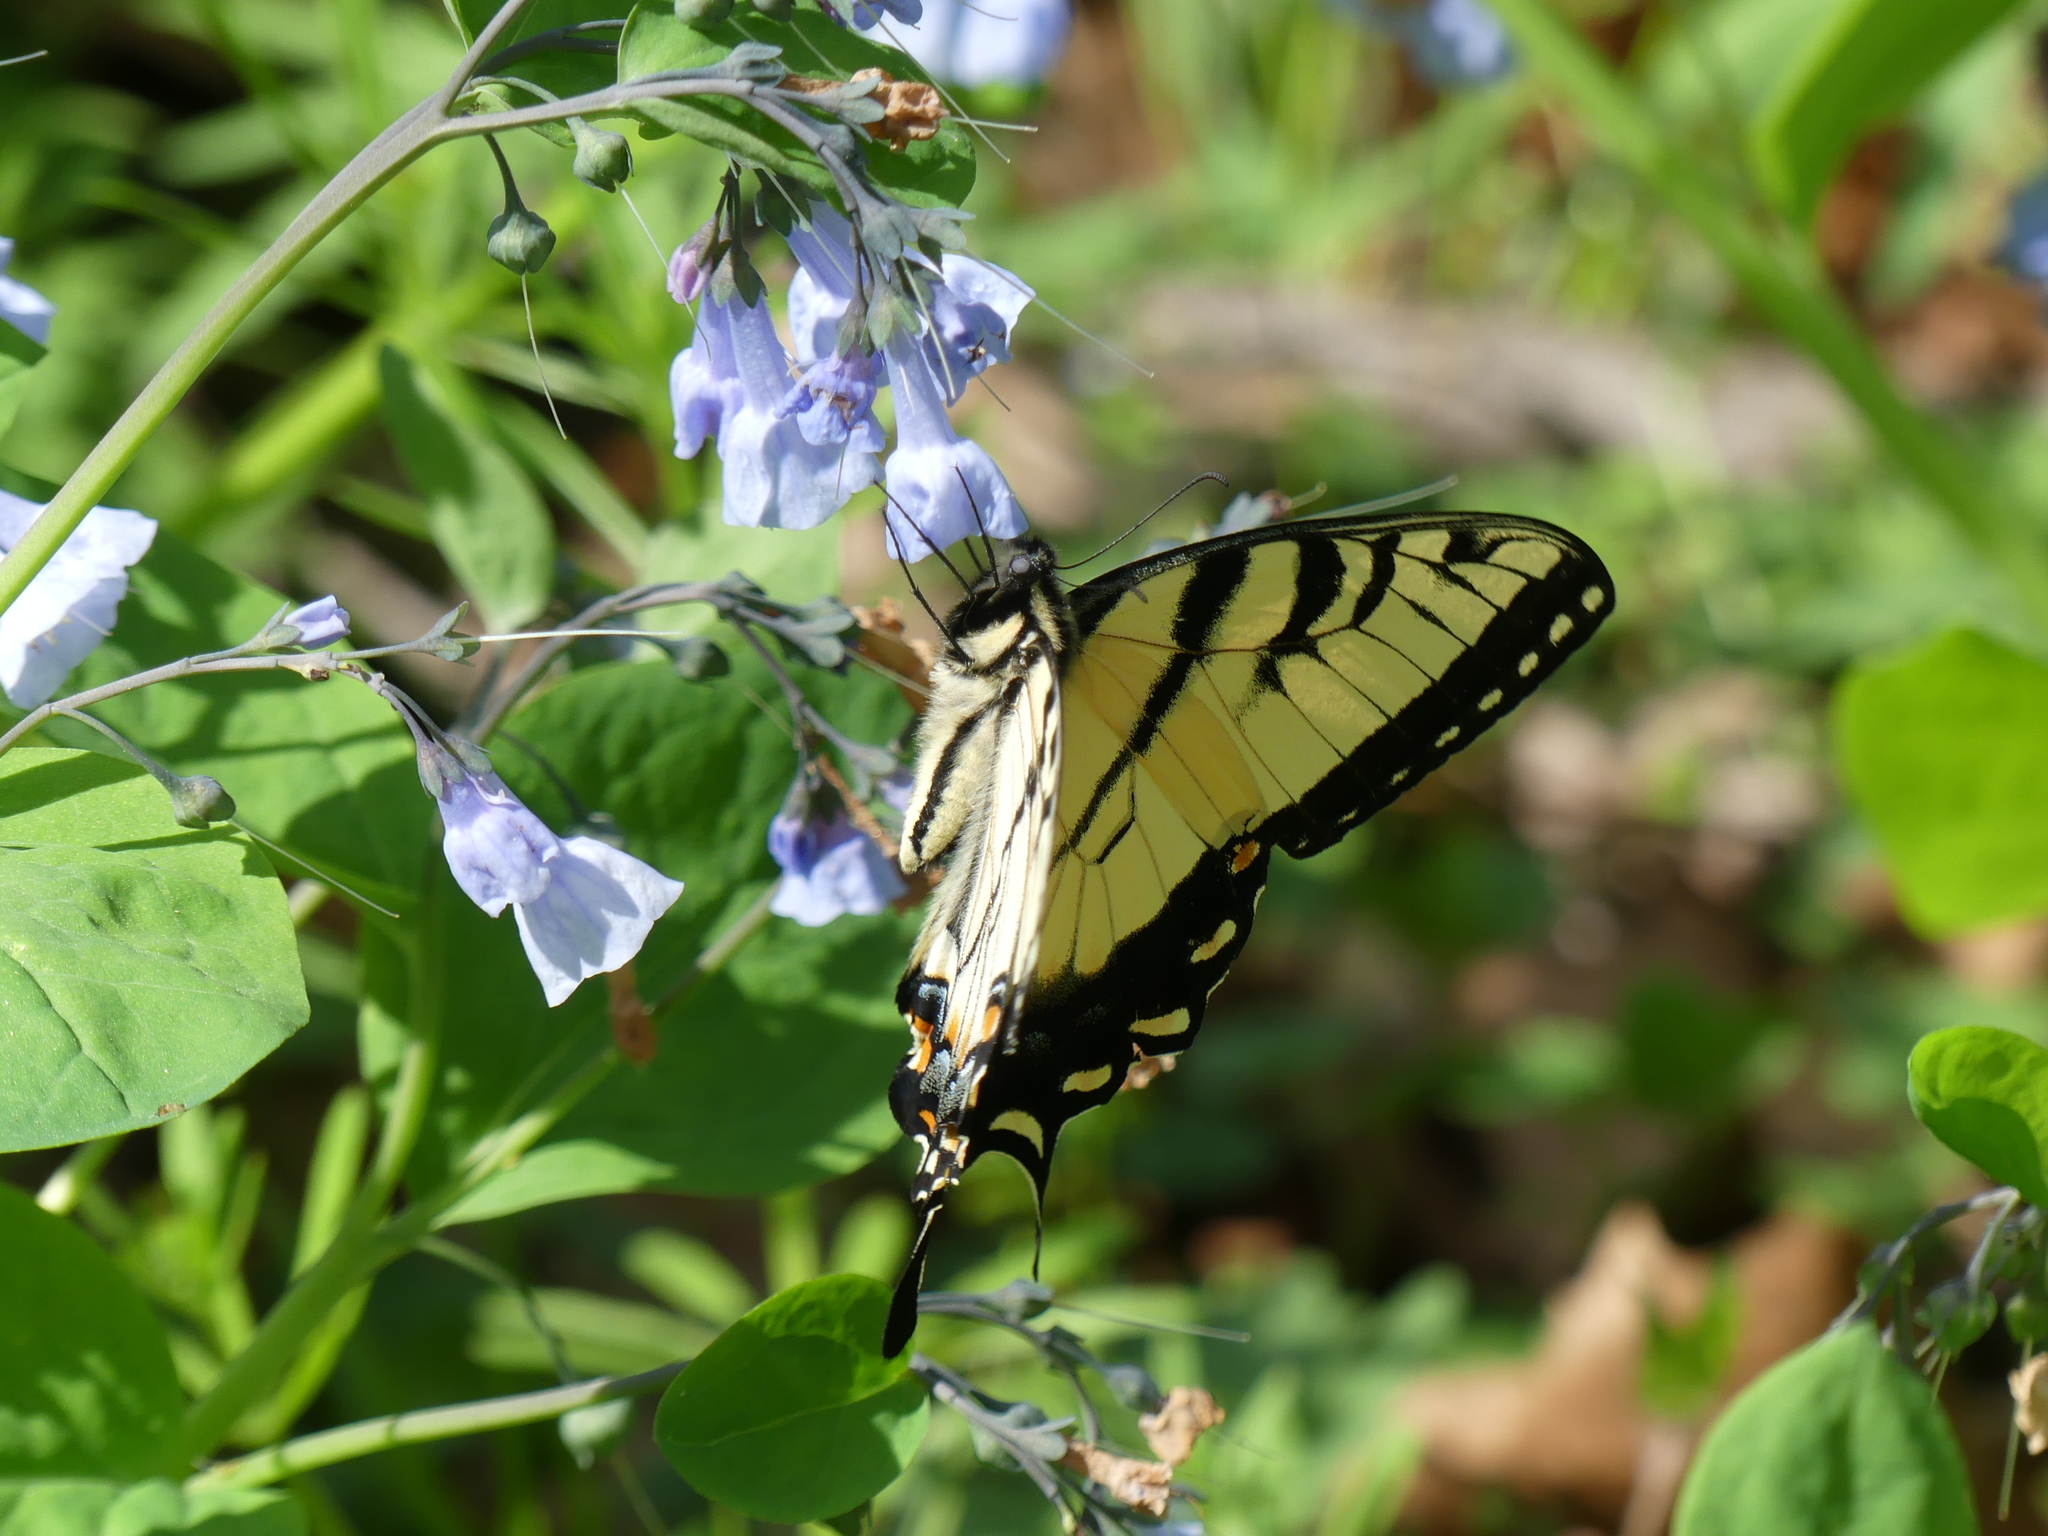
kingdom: Plantae
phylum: Tracheophyta
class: Magnoliopsida
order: Boraginales
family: Boraginaceae
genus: Mertensia
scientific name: Mertensia virginica
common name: Virginia bluebells
